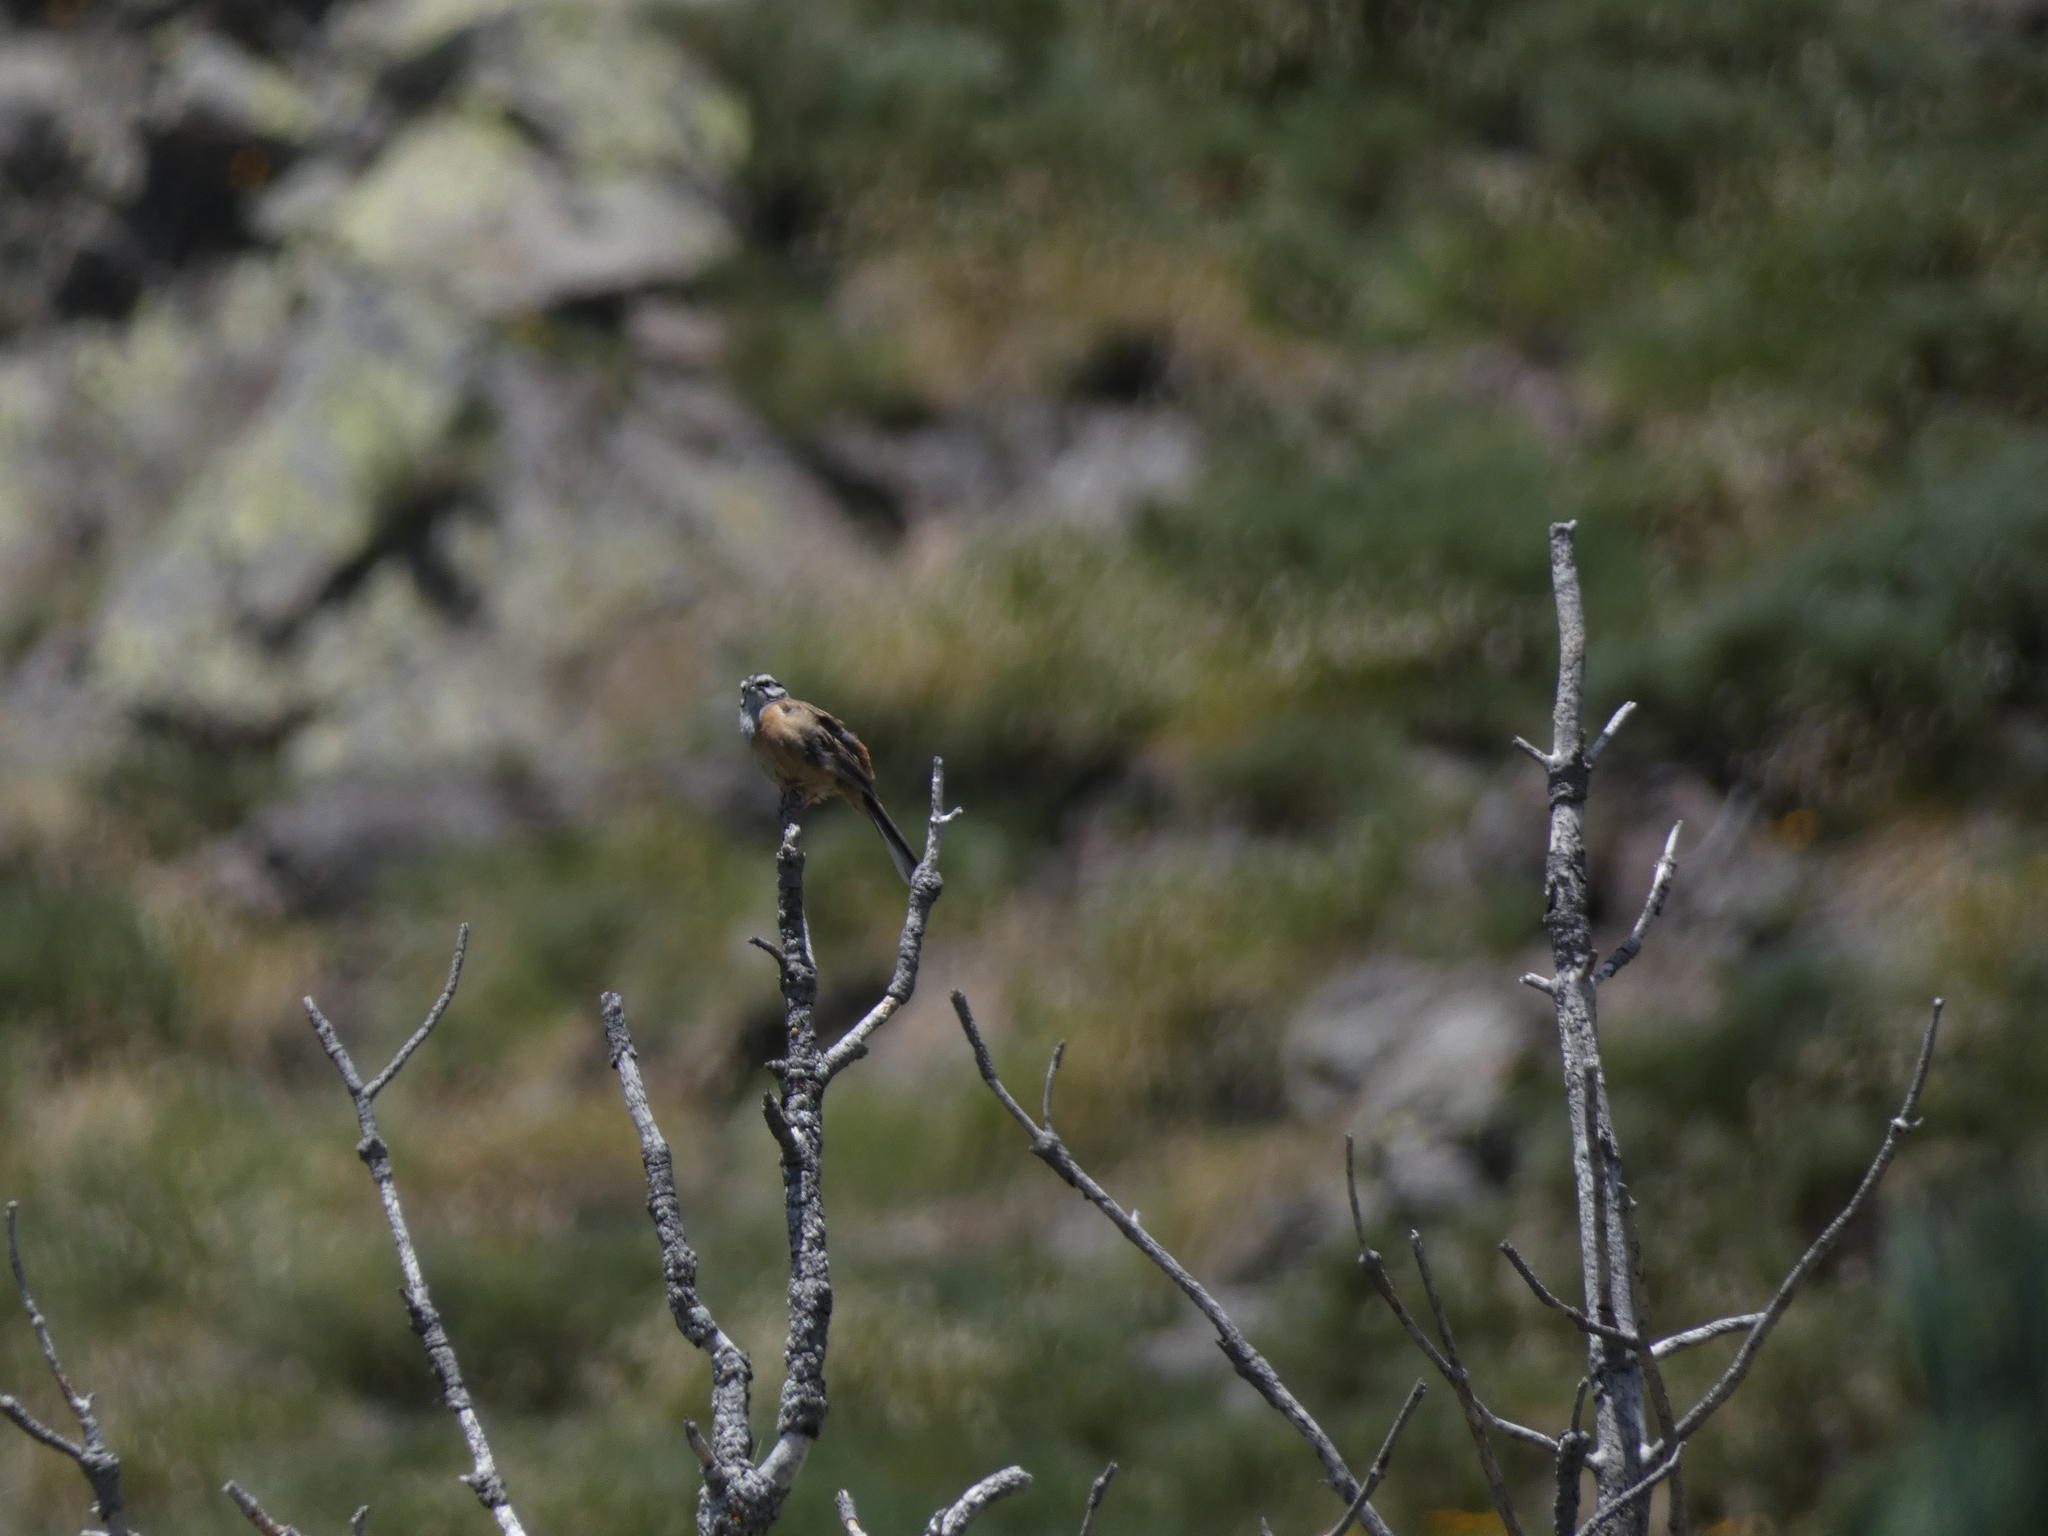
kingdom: Animalia
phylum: Chordata
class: Aves
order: Passeriformes
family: Emberizidae
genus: Emberiza
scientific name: Emberiza cia
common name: Rock bunting
